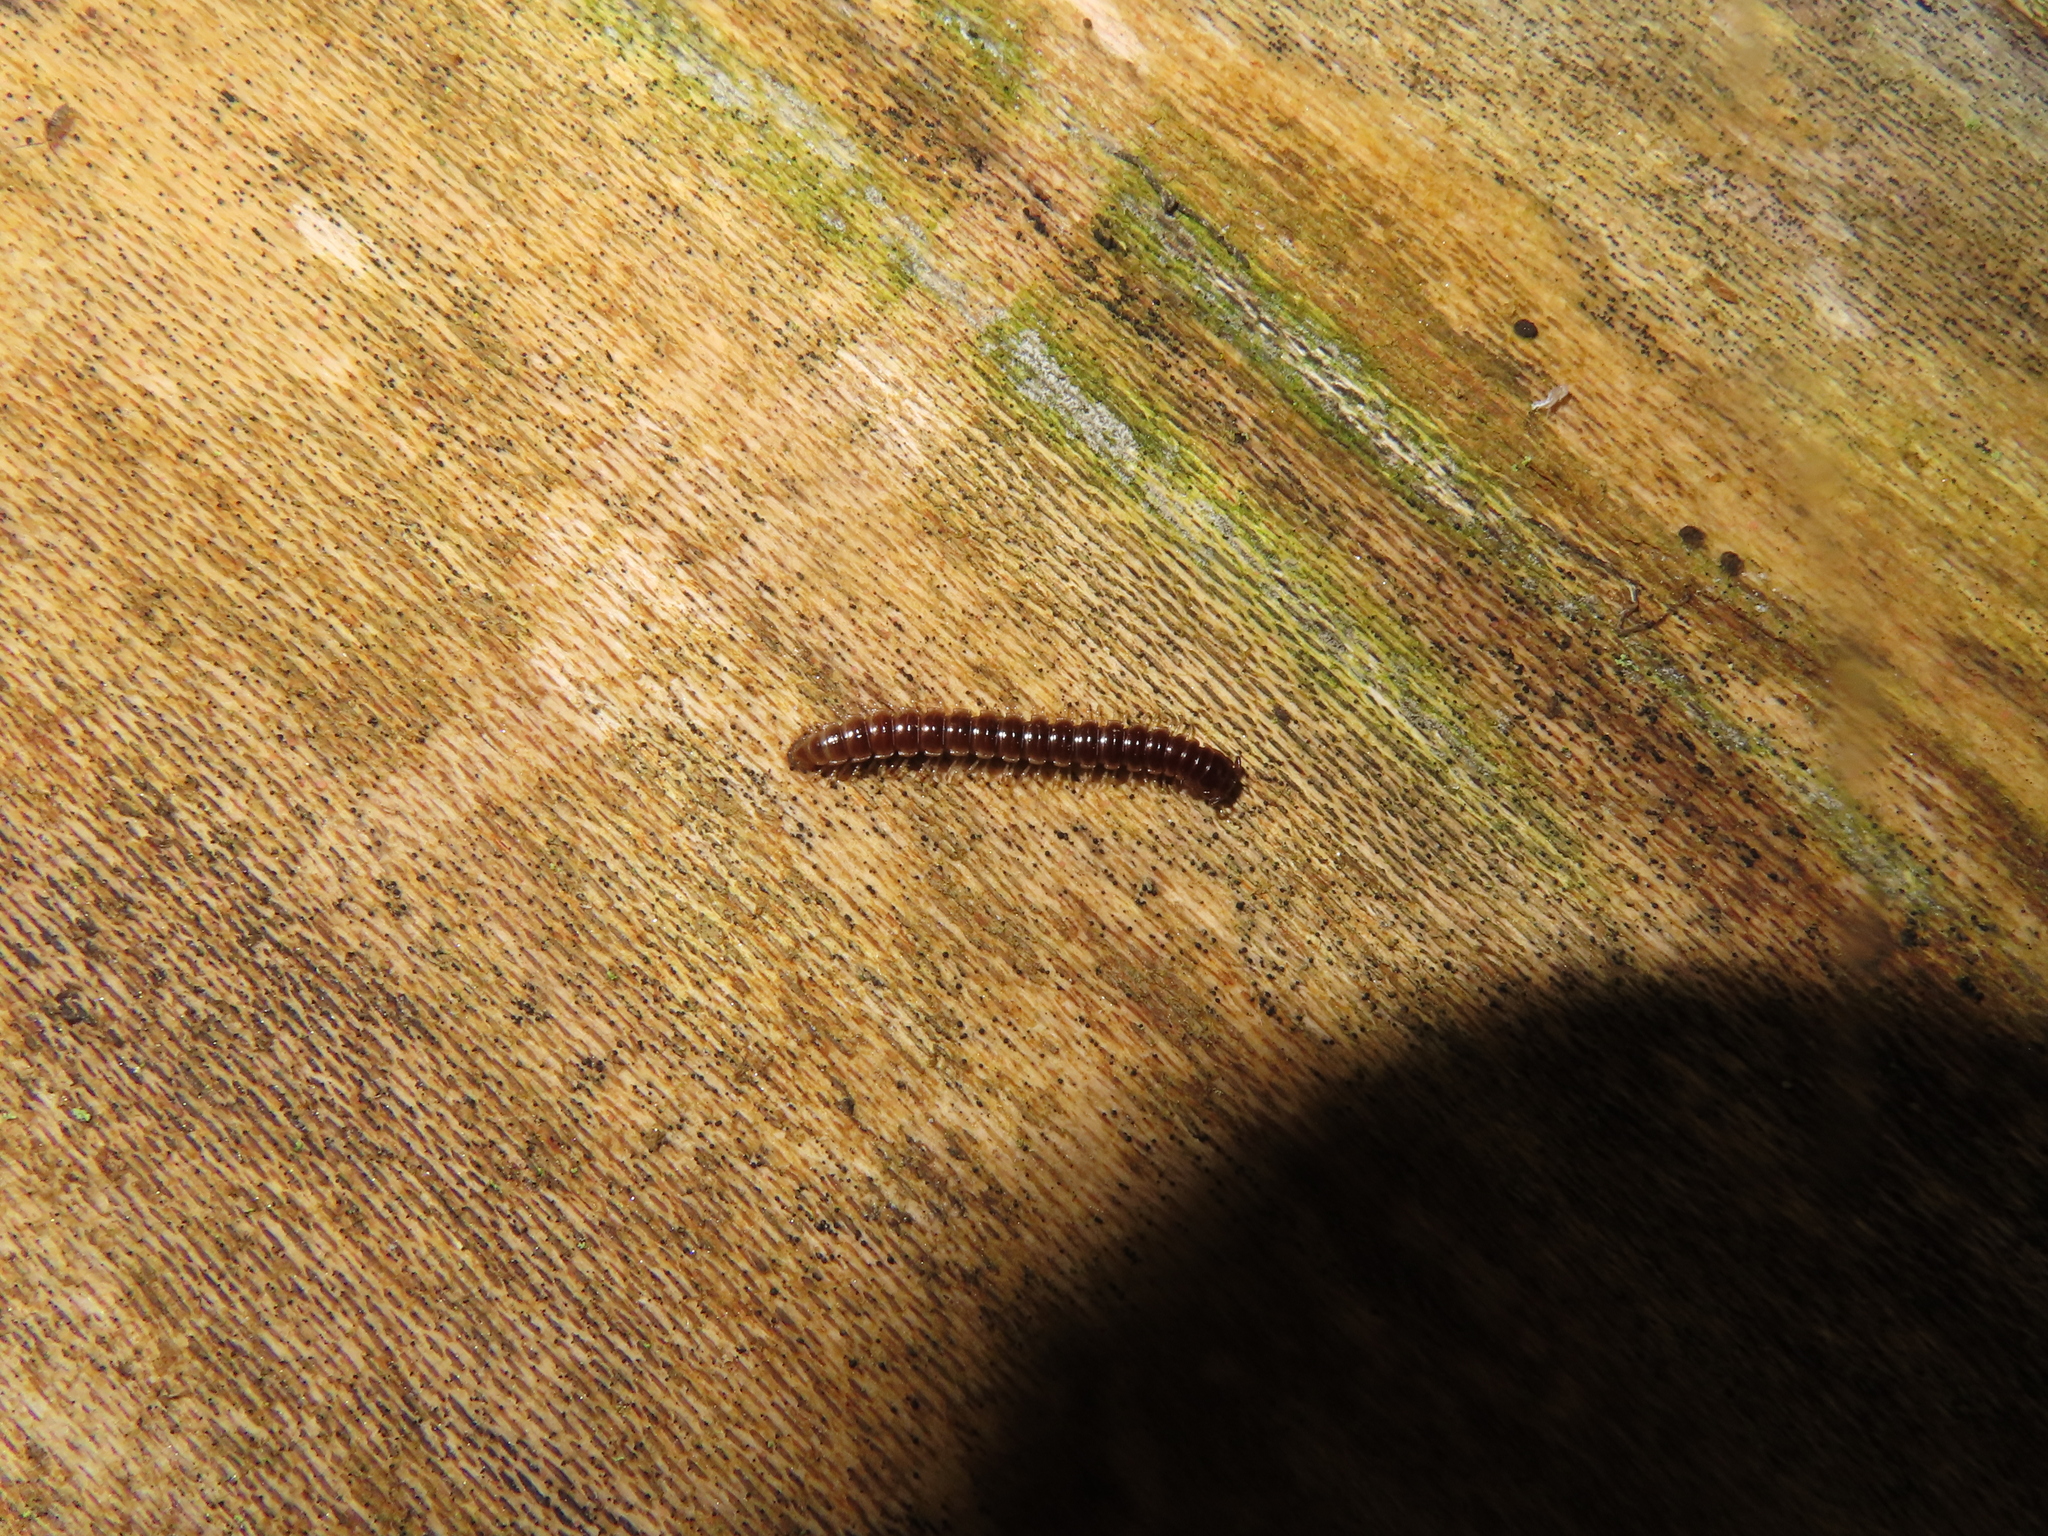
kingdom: Animalia
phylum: Arthropoda
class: Diplopoda
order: Polydesmida
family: Paradoxosomatidae
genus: Oxidus
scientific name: Oxidus gracilis
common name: Greenhouse millipede
